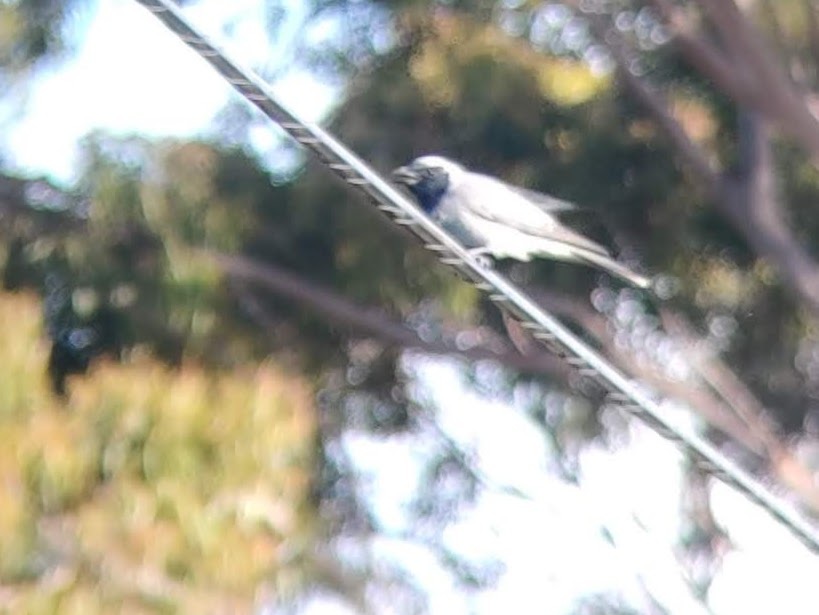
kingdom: Animalia
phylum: Chordata
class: Aves
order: Passeriformes
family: Campephagidae
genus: Coracina
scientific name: Coracina novaehollandiae
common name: Black-faced cuckooshrike
